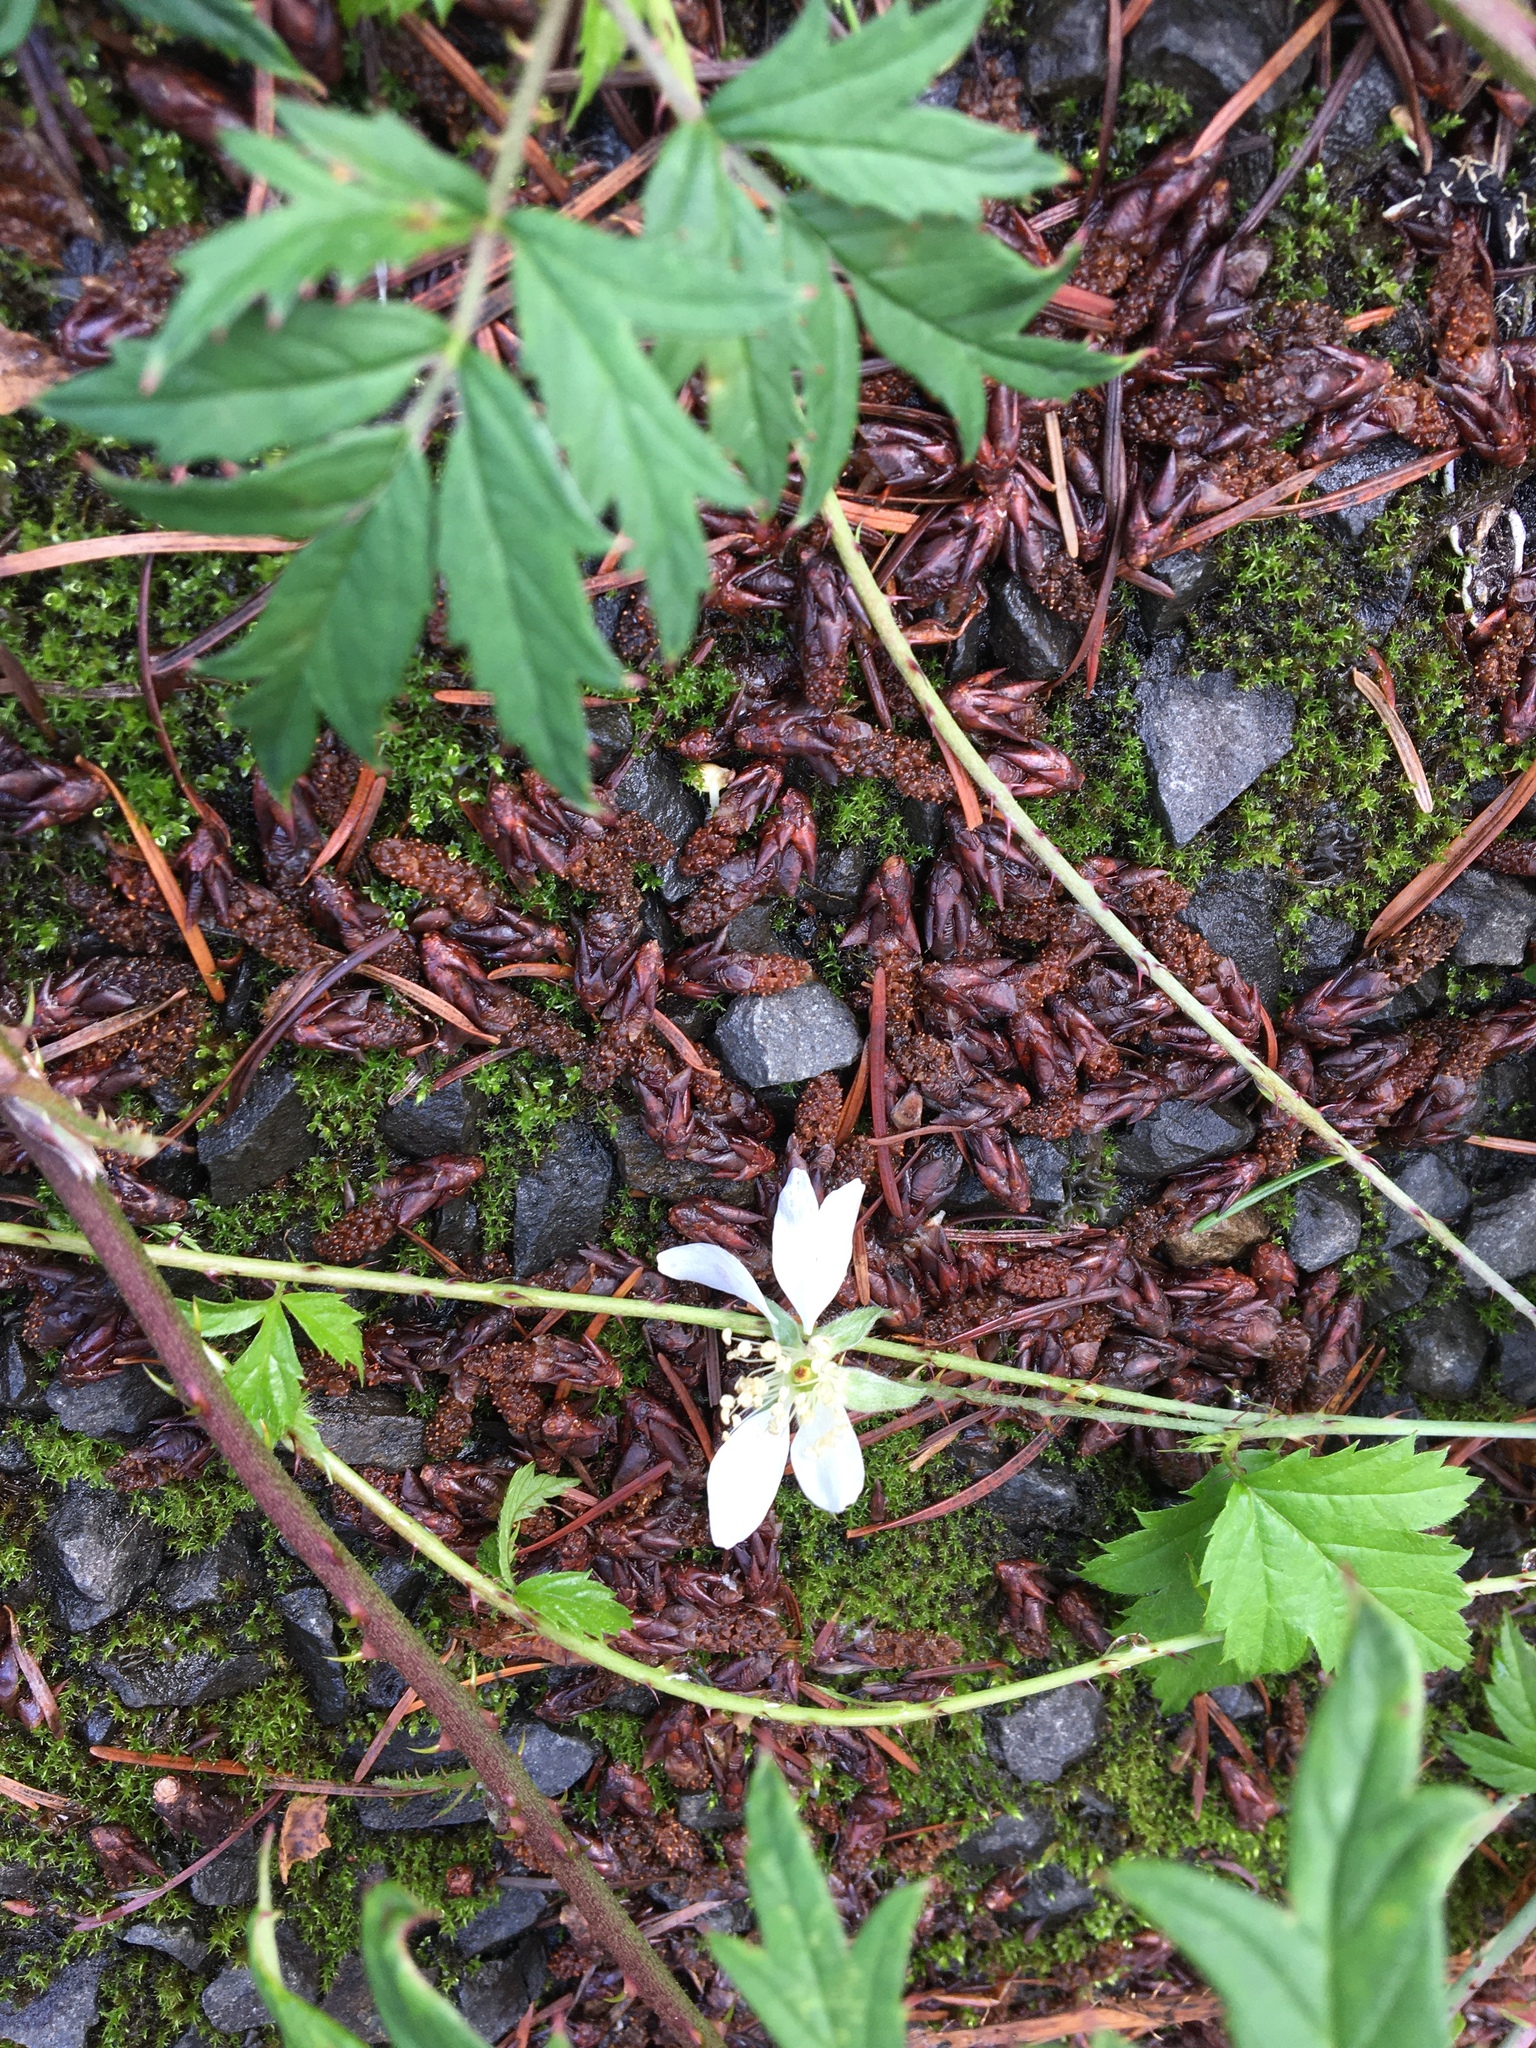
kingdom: Plantae
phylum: Tracheophyta
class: Magnoliopsida
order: Rosales
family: Rosaceae
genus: Rubus
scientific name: Rubus ursinus
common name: Pacific blackberry
